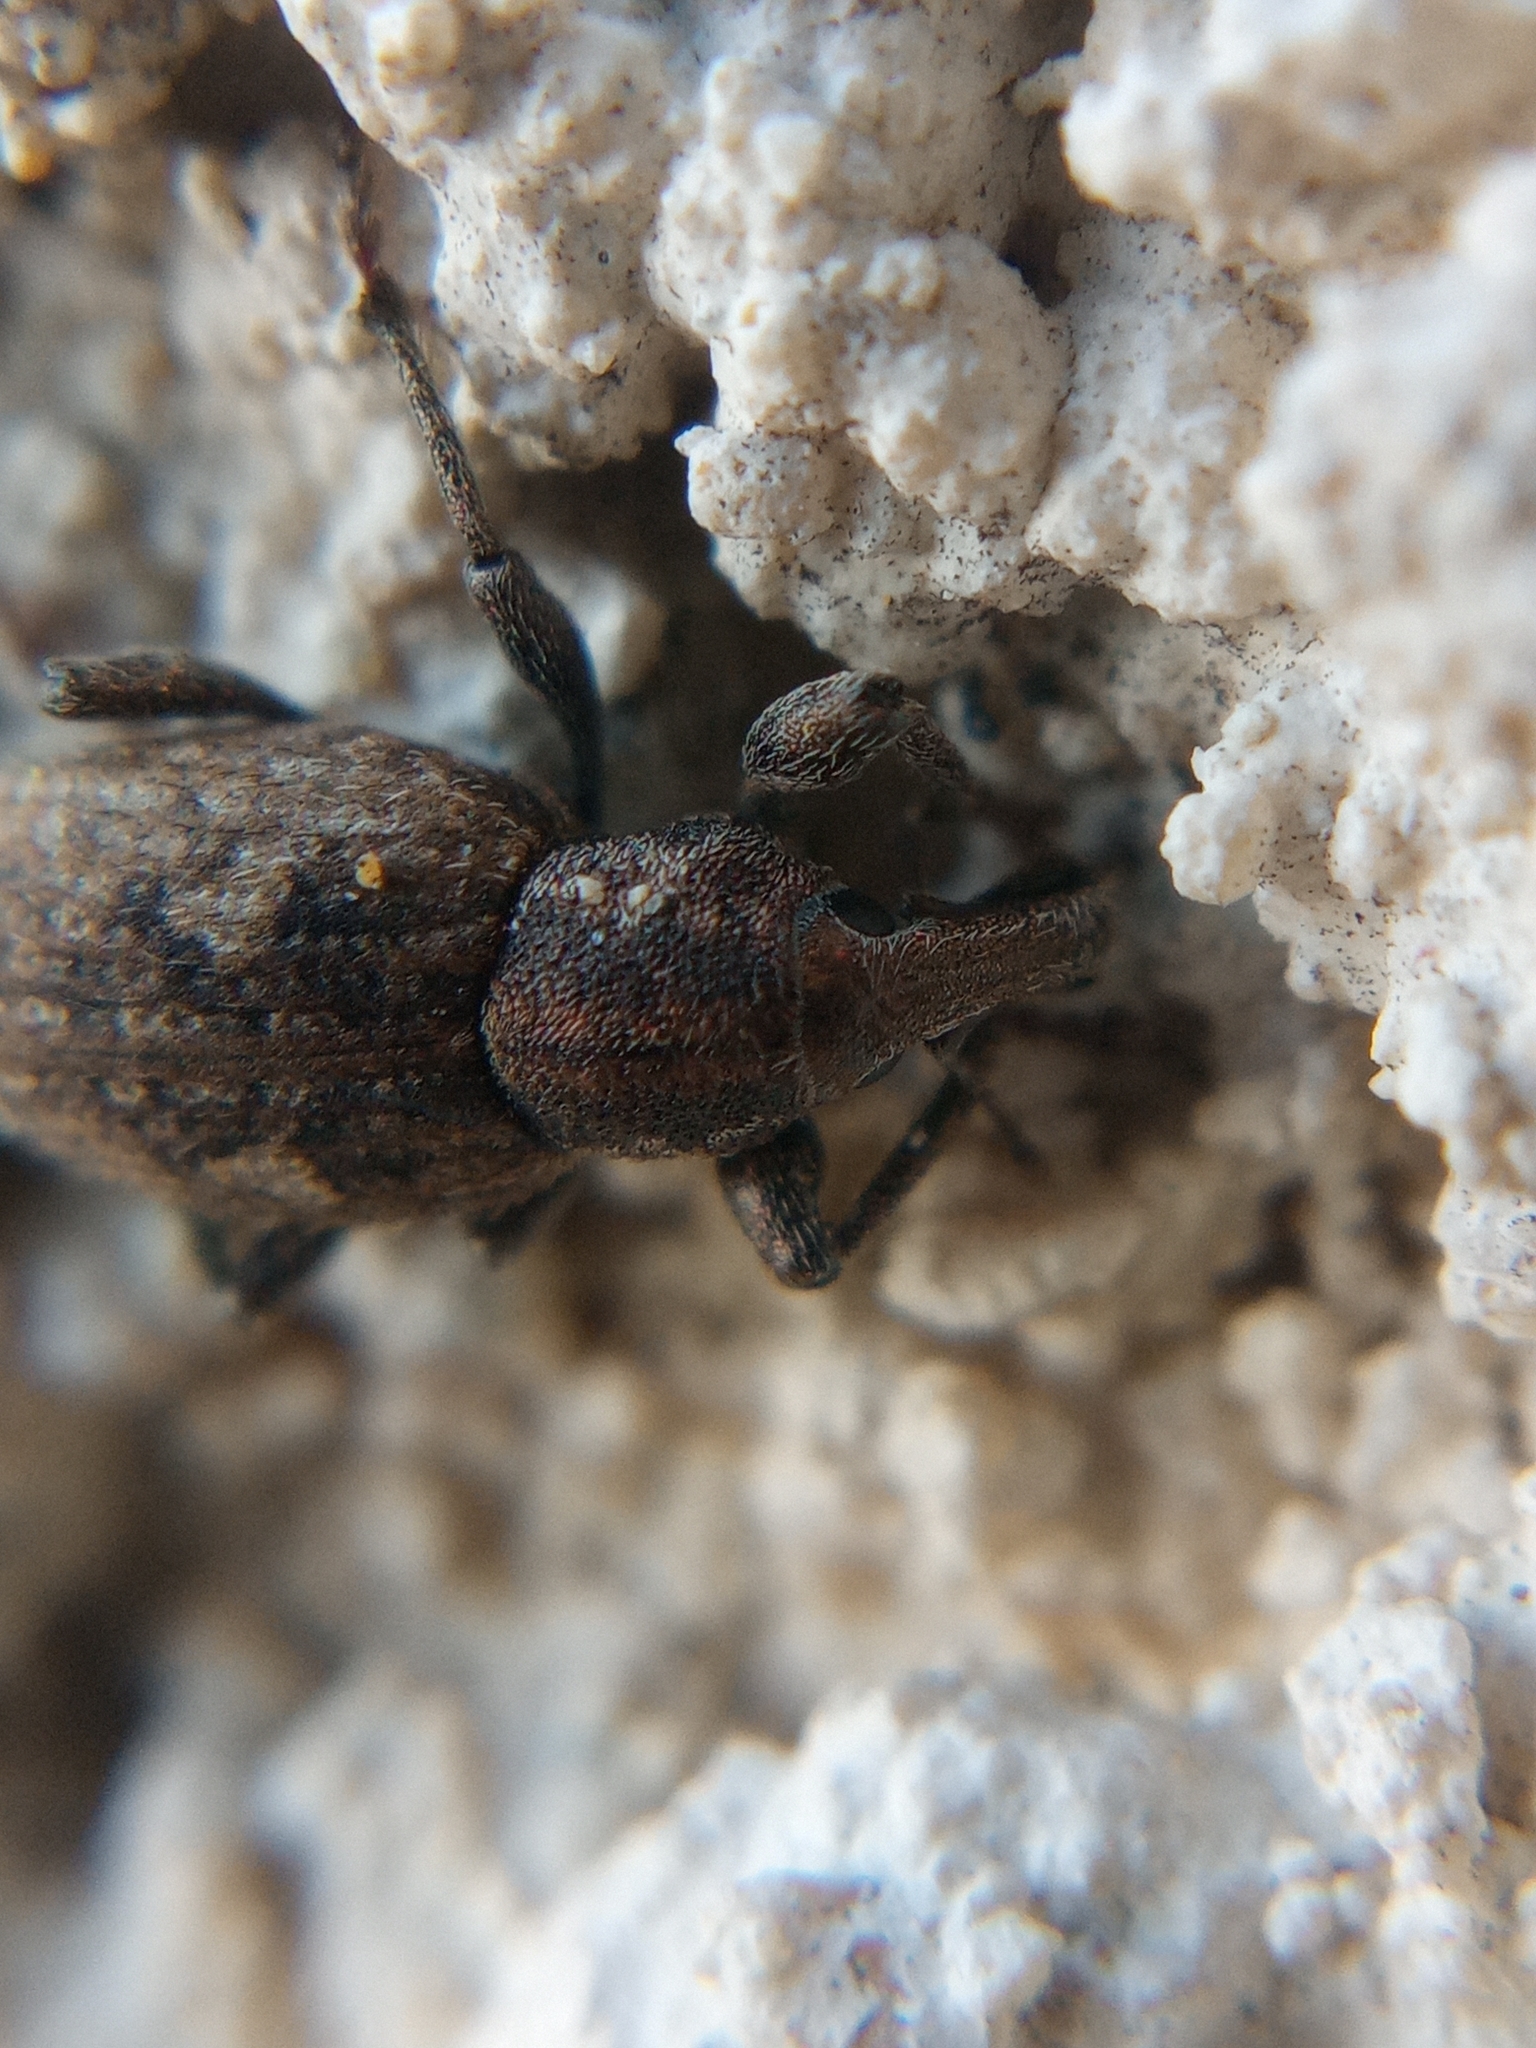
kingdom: Animalia
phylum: Arthropoda
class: Insecta
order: Coleoptera
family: Curculionidae
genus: Graptus
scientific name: Graptus triguttatus
